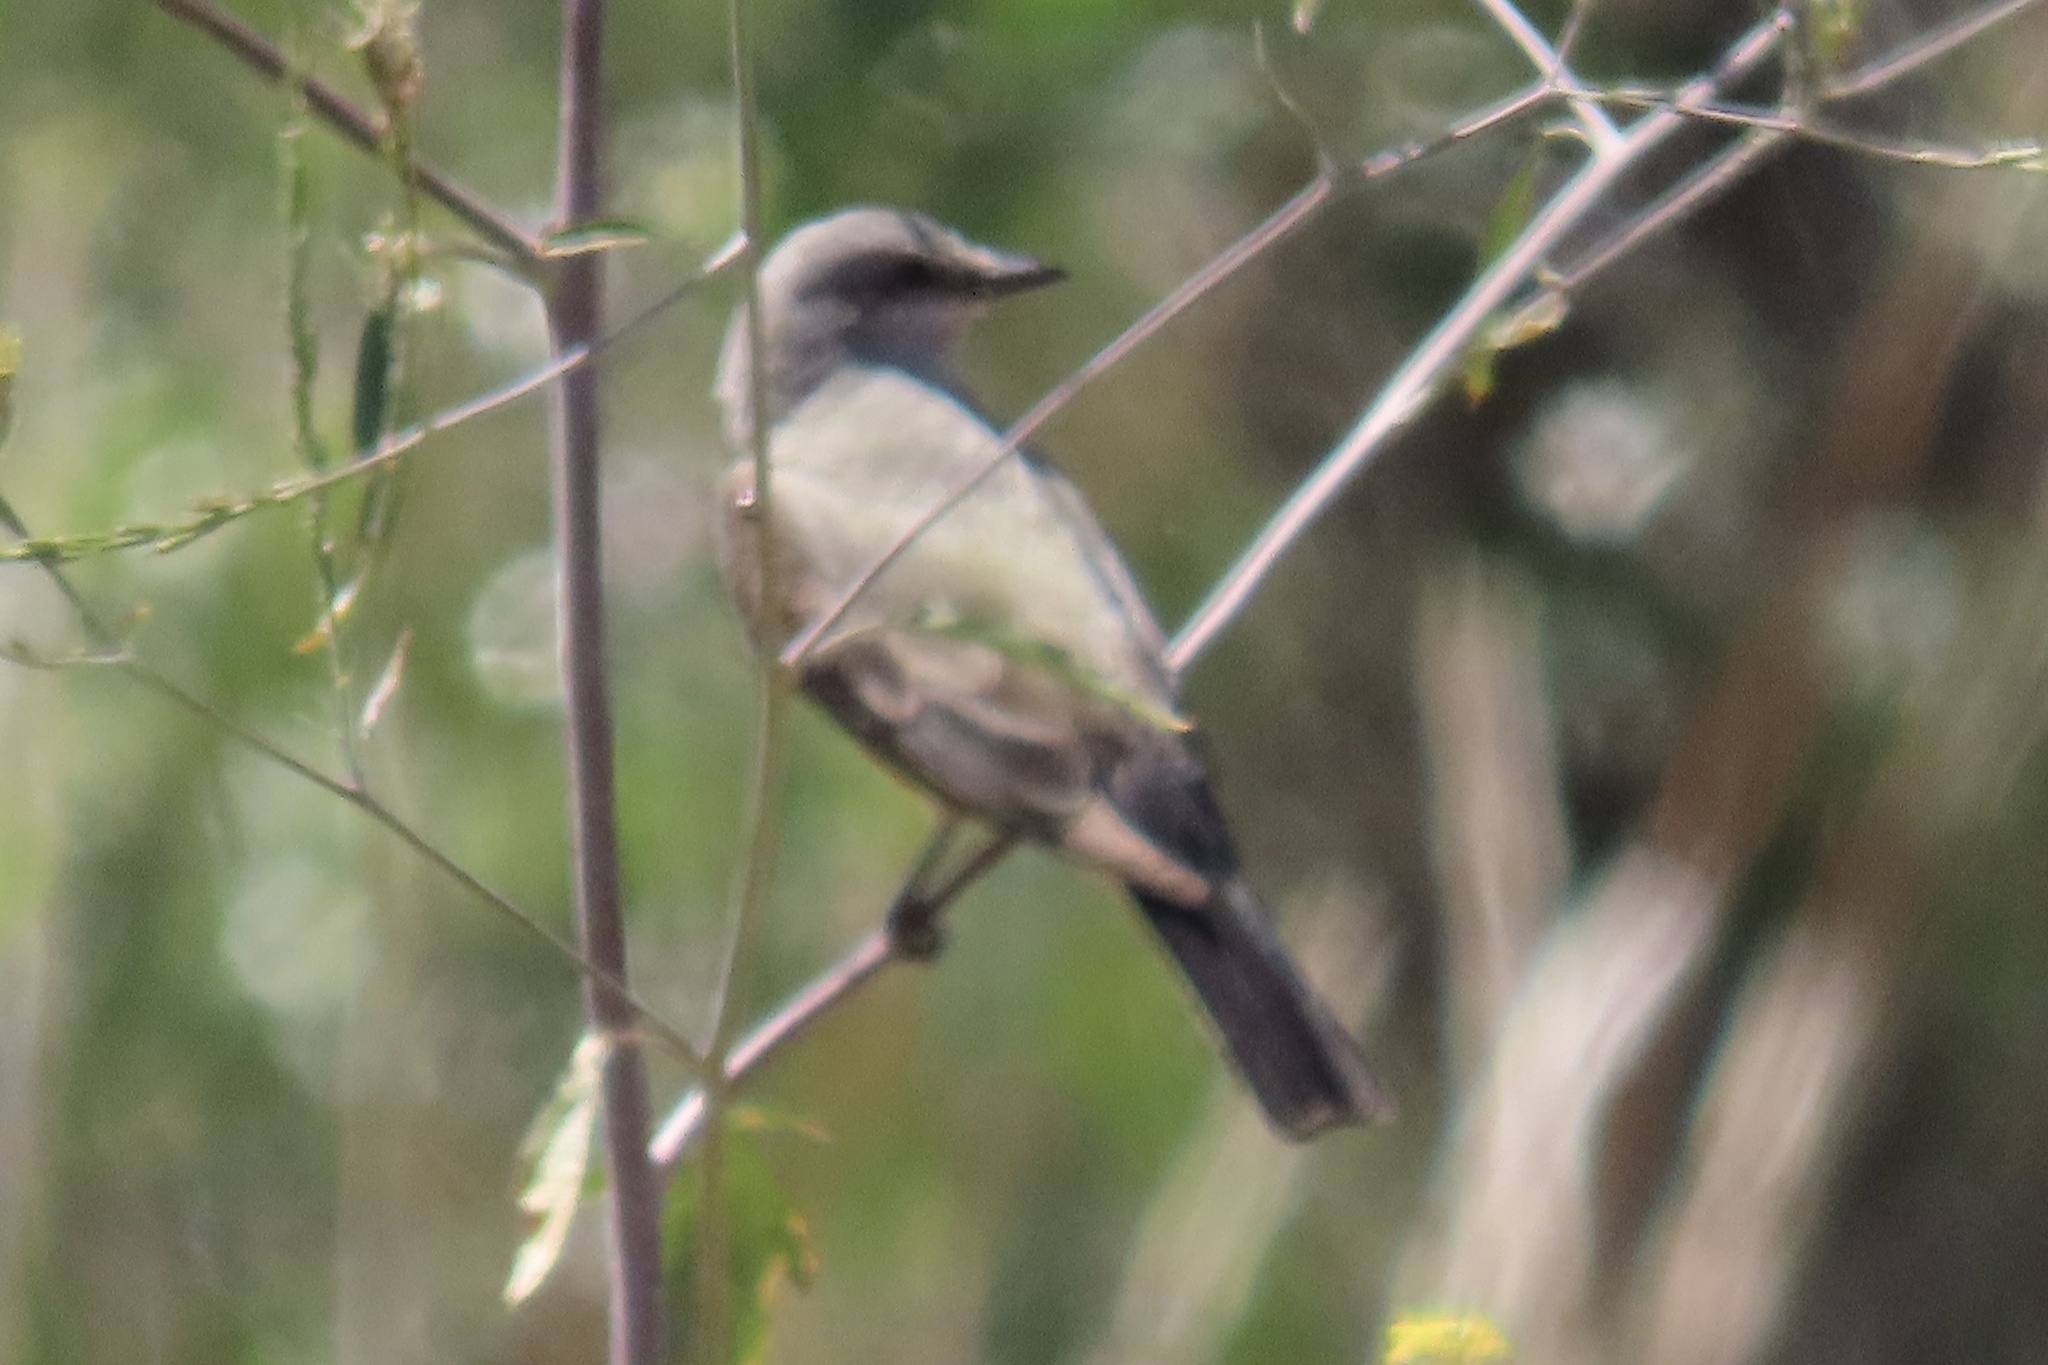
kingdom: Animalia
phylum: Chordata
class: Aves
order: Passeriformes
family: Tyrannidae
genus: Tyrannus
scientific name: Tyrannus verticalis
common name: Western kingbird
